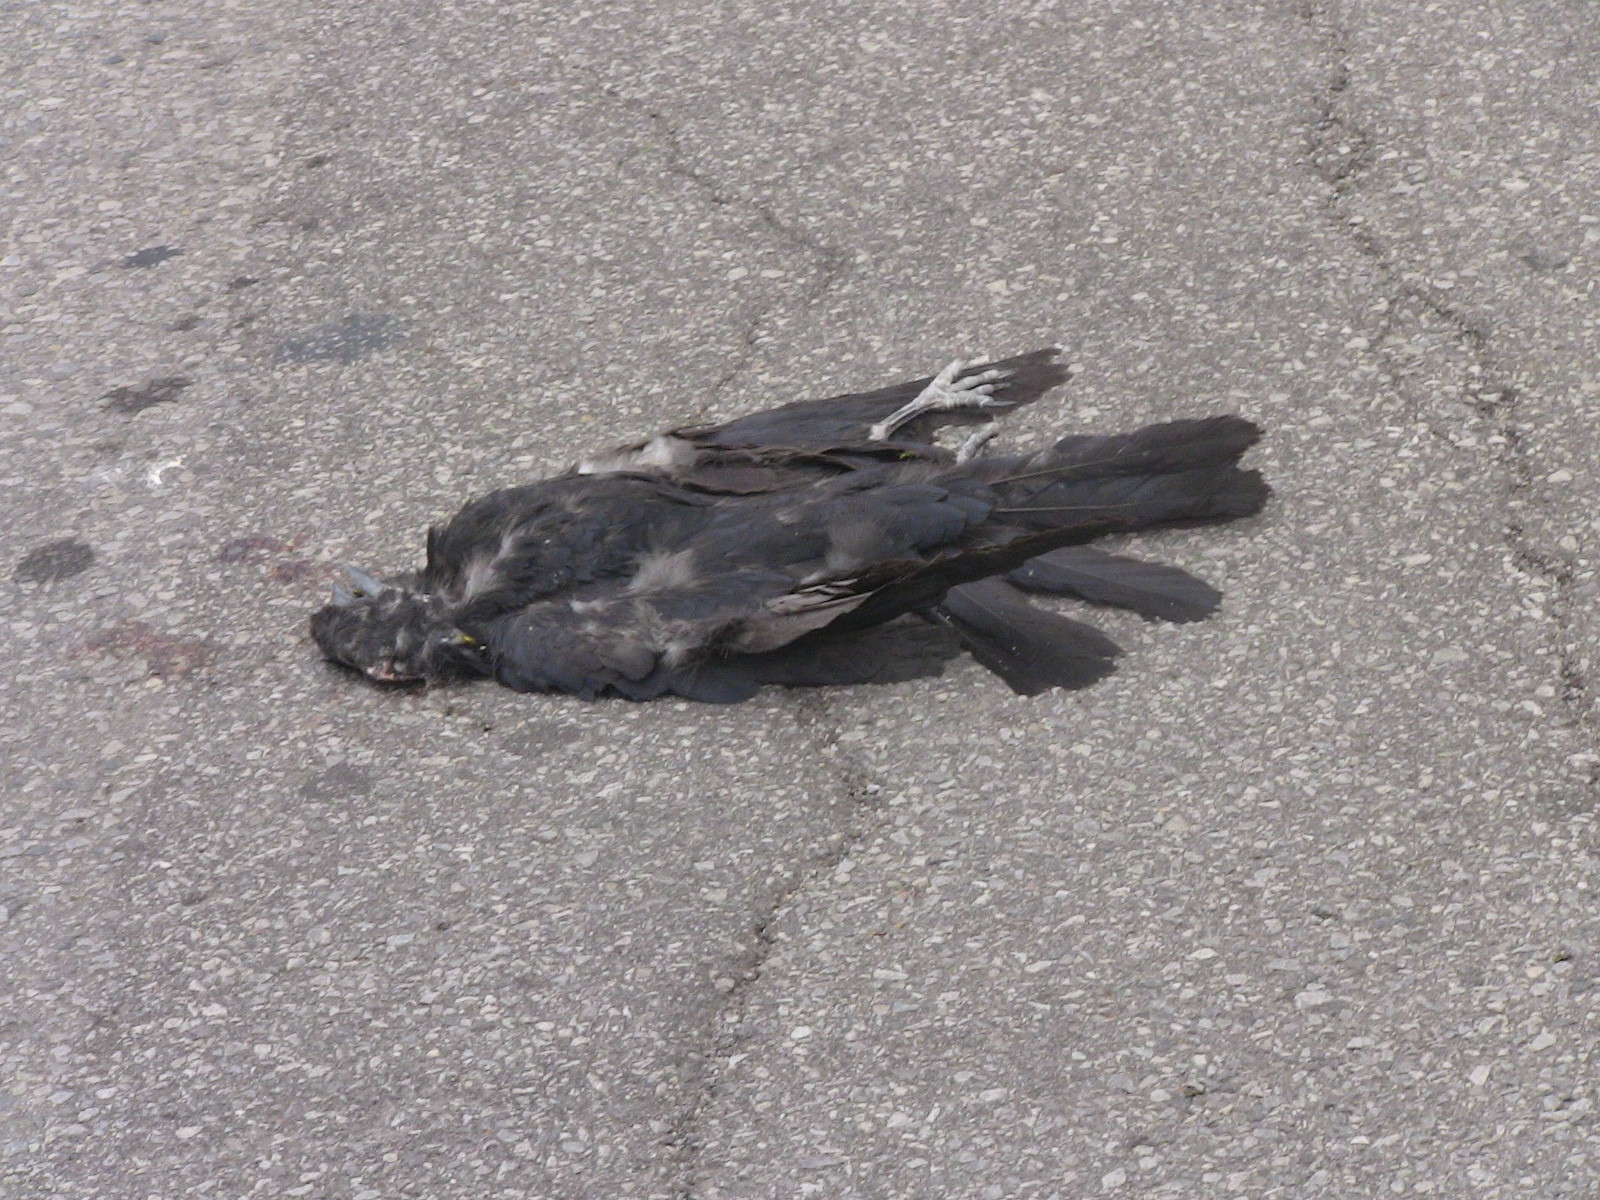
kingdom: Animalia
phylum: Chordata
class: Aves
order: Passeriformes
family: Corvidae
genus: Corvus
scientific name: Corvus brachyrhynchos
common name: American crow
